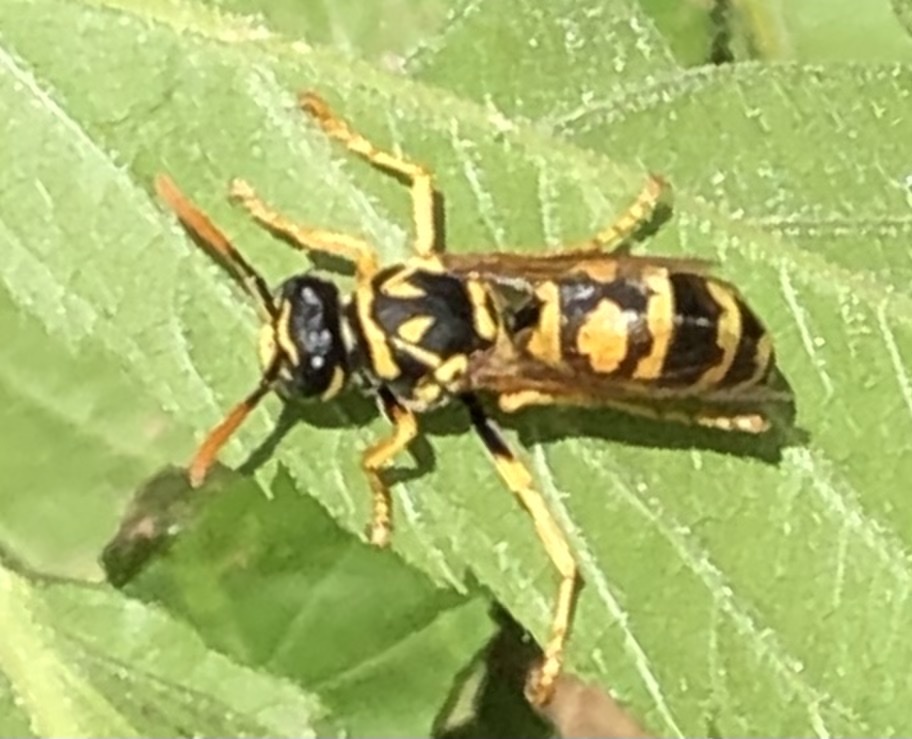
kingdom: Animalia
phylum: Arthropoda
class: Insecta
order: Hymenoptera
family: Eumenidae
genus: Polistes
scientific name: Polistes dominula
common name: Paper wasp
